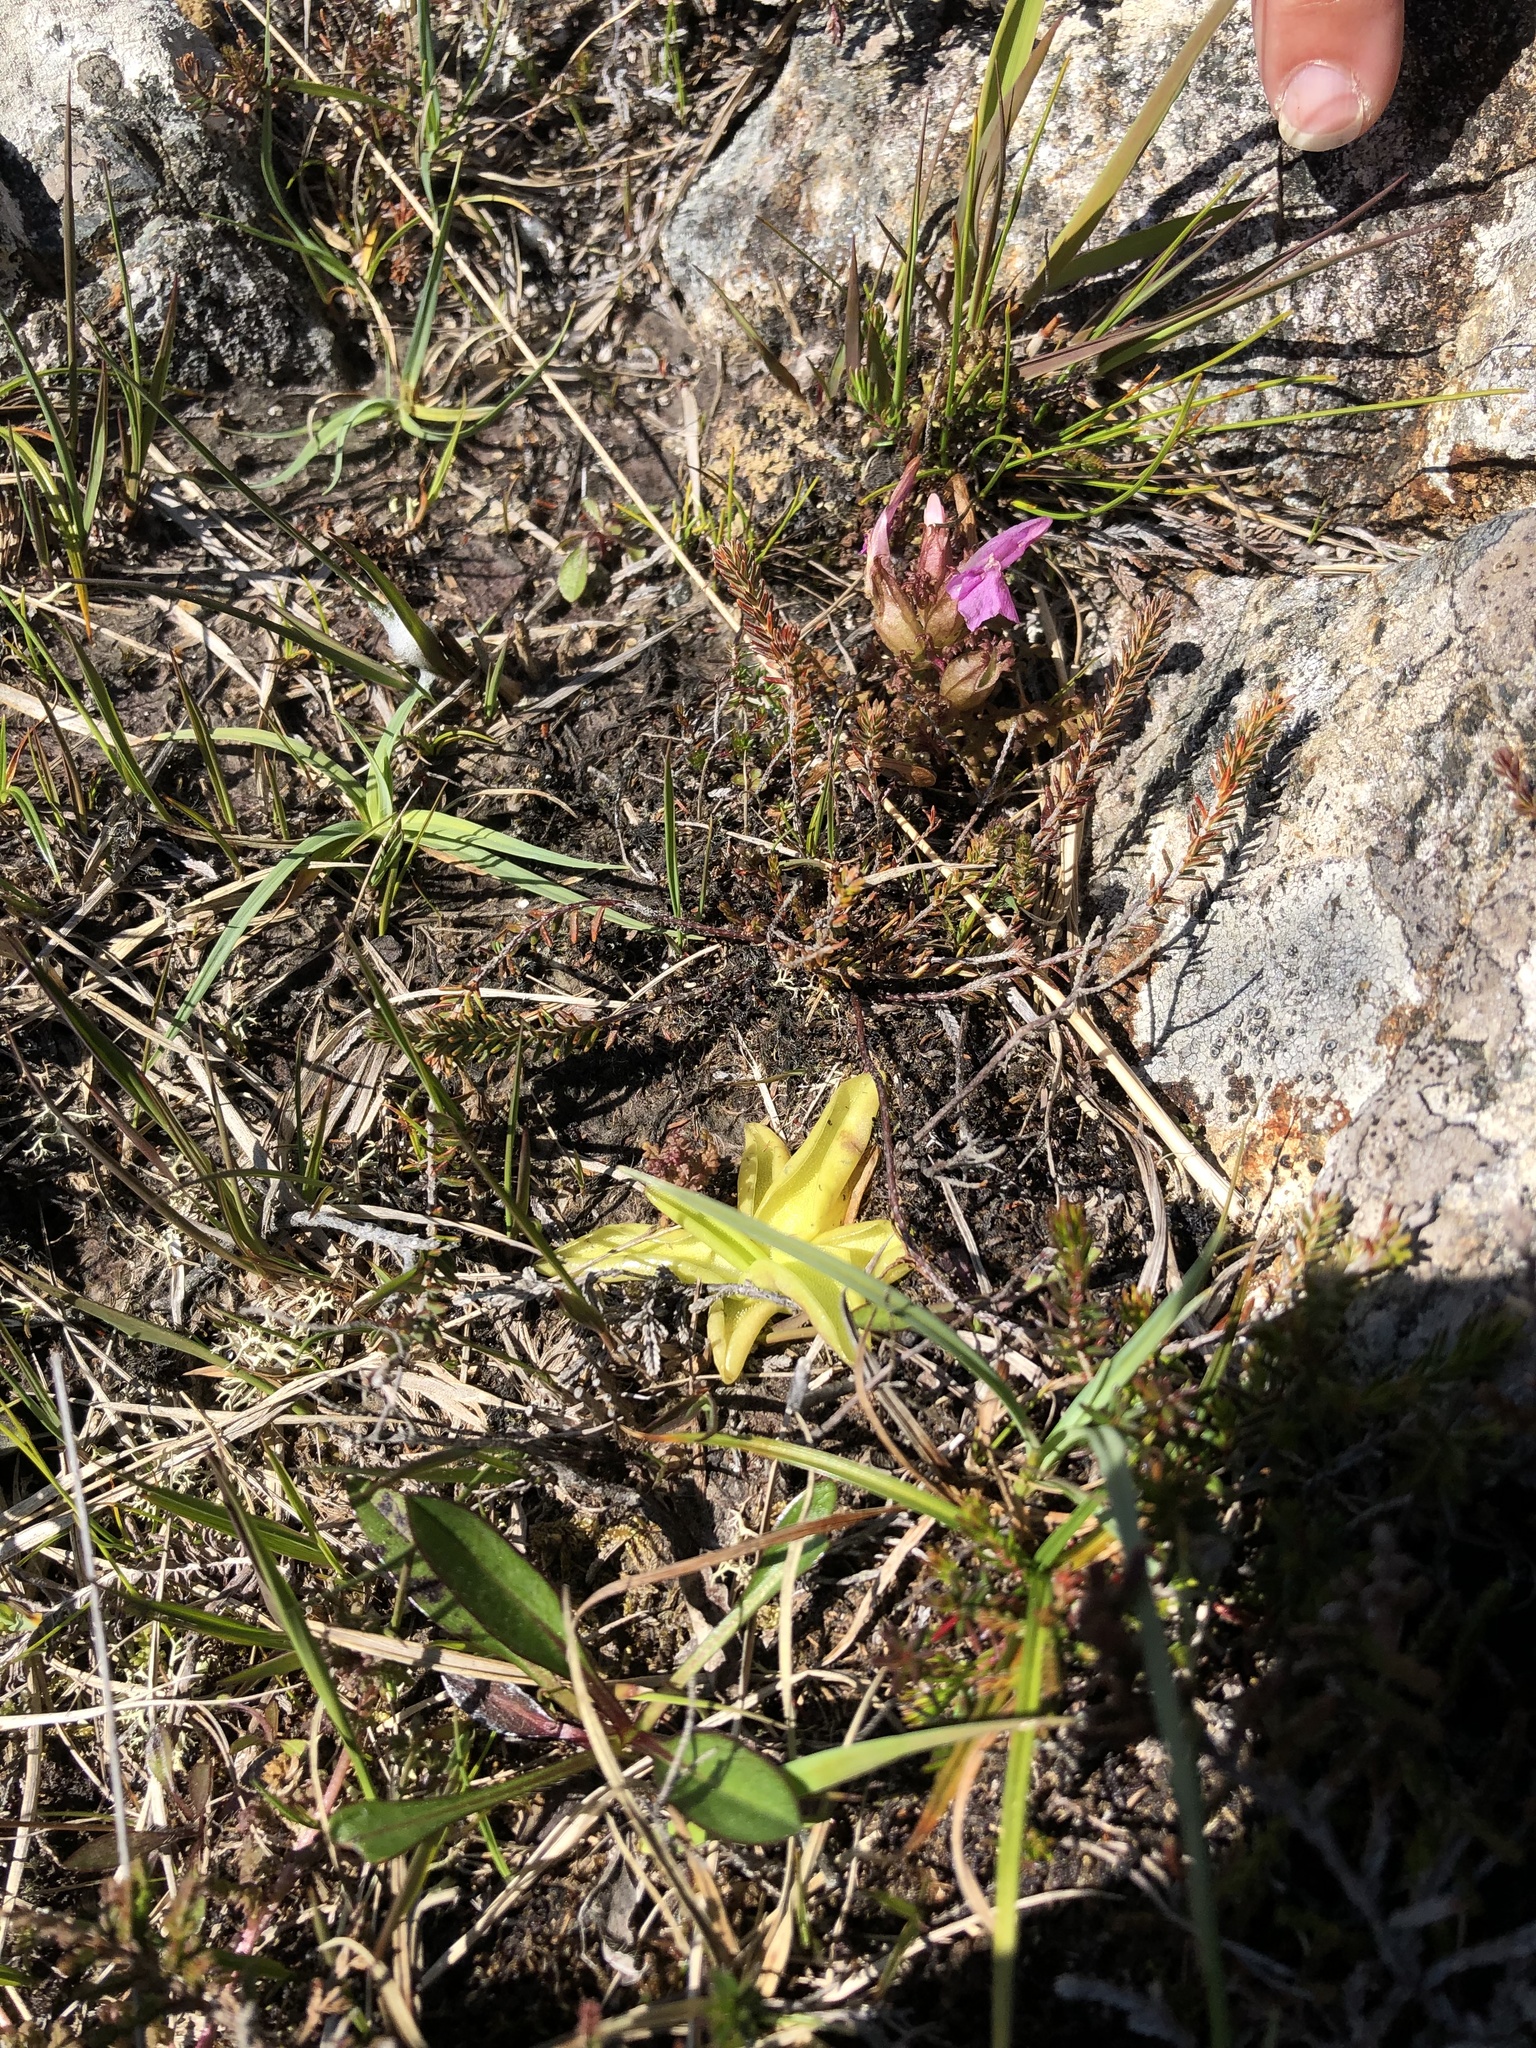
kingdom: Plantae
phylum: Tracheophyta
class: Magnoliopsida
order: Lamiales
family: Lentibulariaceae
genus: Pinguicula
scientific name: Pinguicula vulgaris
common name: Common butterwort
